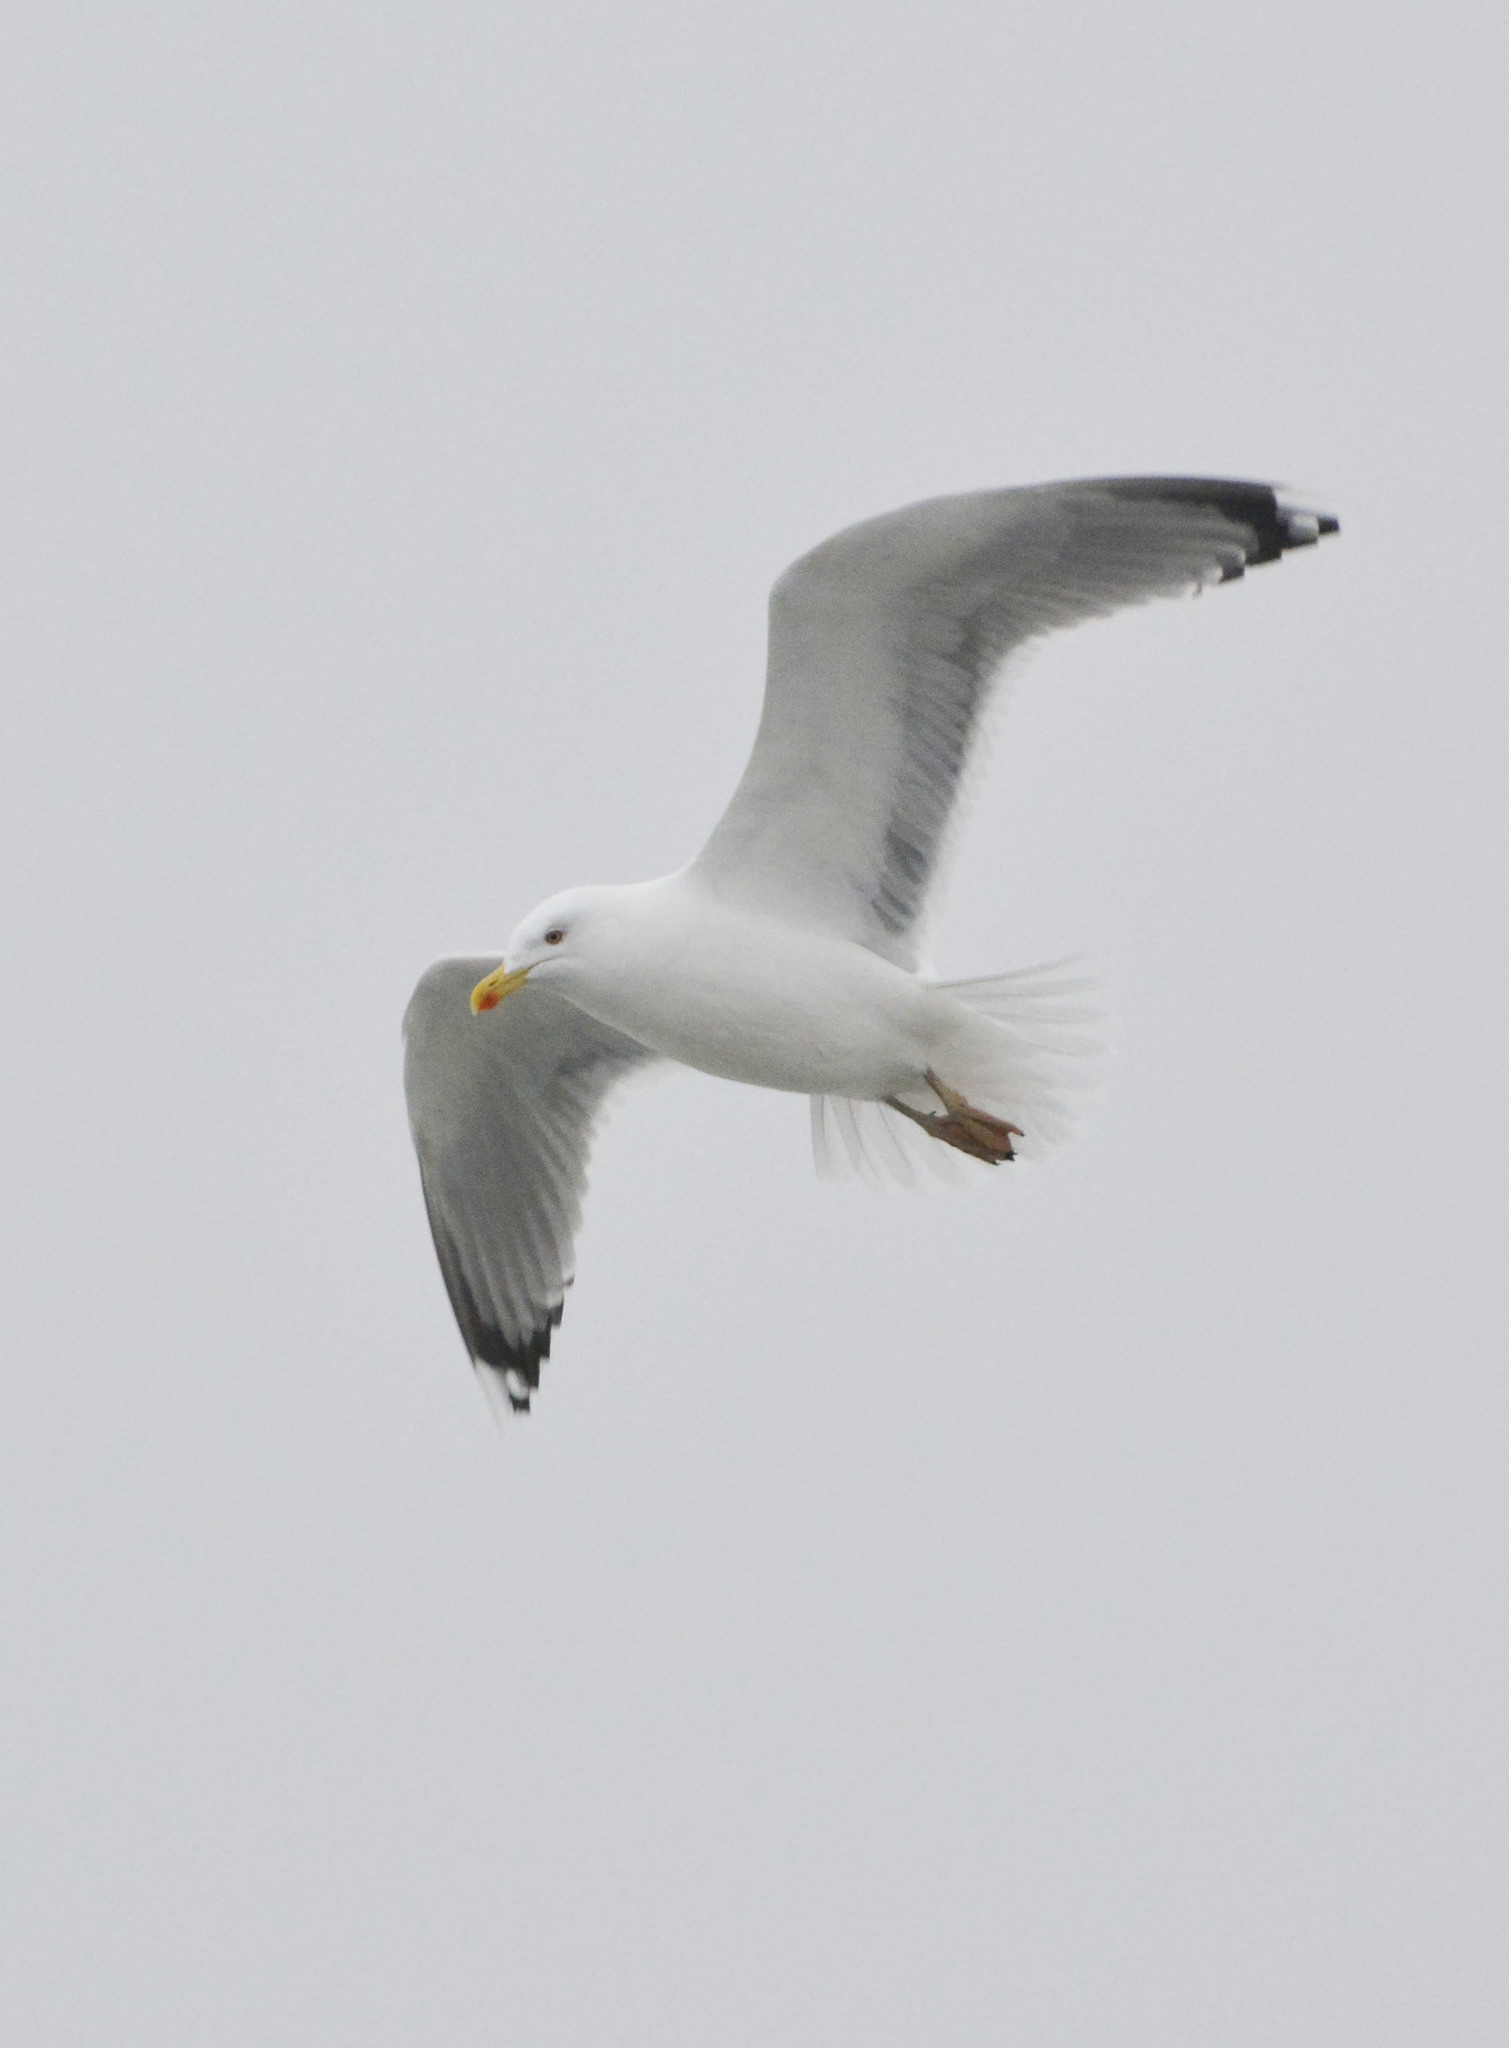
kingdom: Animalia
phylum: Chordata
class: Aves
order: Charadriiformes
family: Laridae
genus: Larus
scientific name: Larus argentatus
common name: Herring gull
